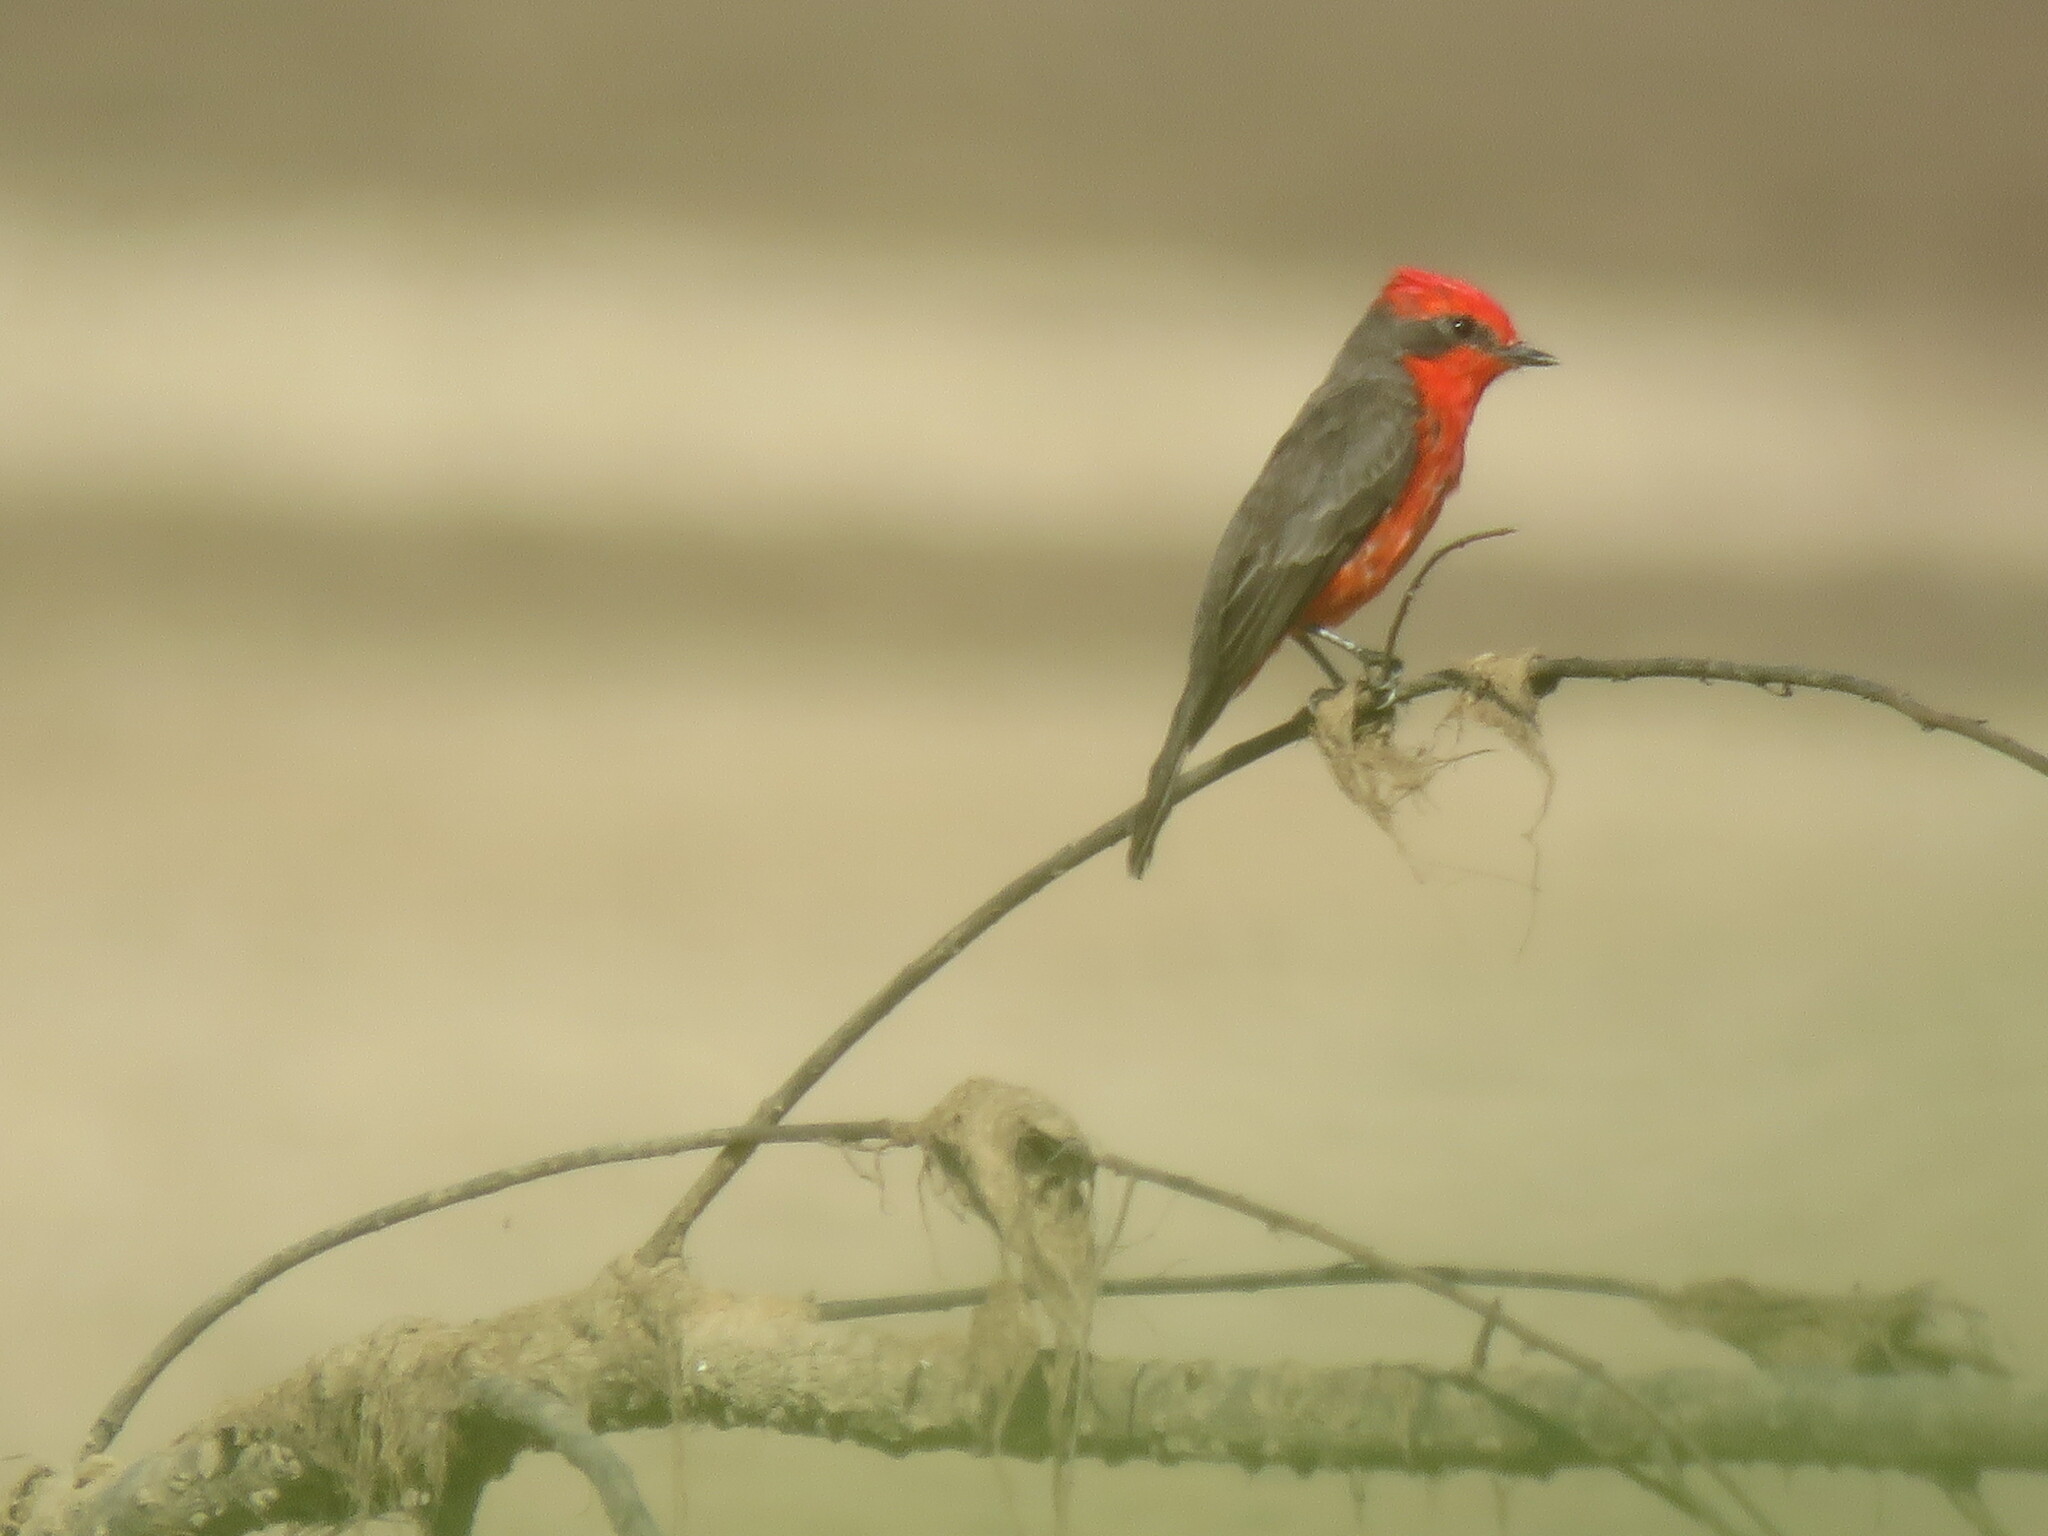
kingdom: Animalia
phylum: Chordata
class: Aves
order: Passeriformes
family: Tyrannidae
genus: Pyrocephalus
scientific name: Pyrocephalus rubinus
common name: Vermilion flycatcher
